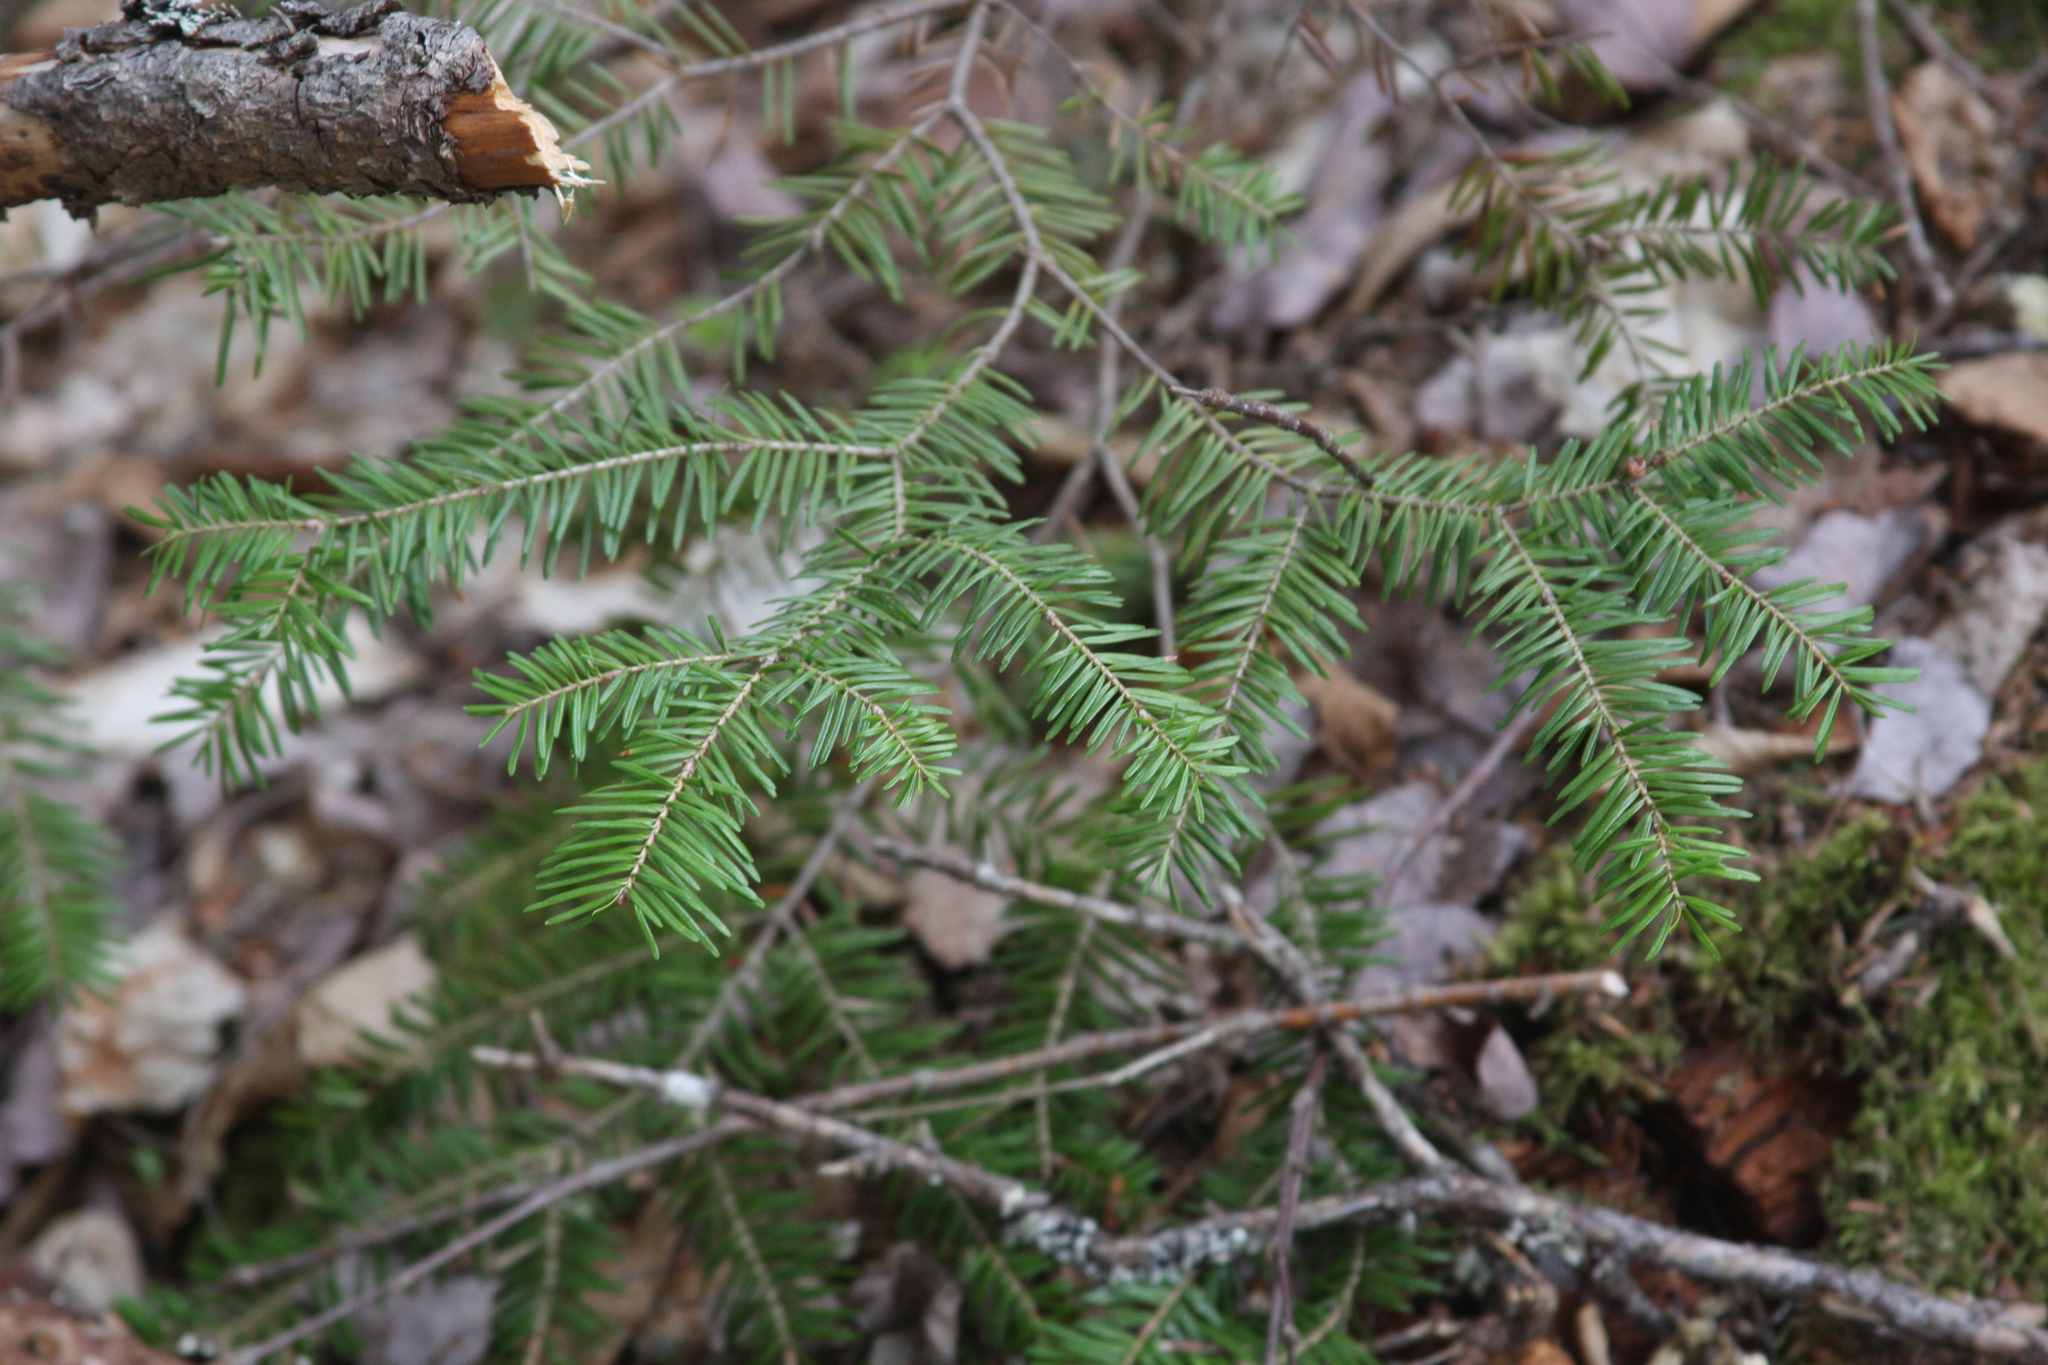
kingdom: Plantae
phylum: Tracheophyta
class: Pinopsida
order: Pinales
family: Pinaceae
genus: Abies
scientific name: Abies balsamea
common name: Balsam fir
